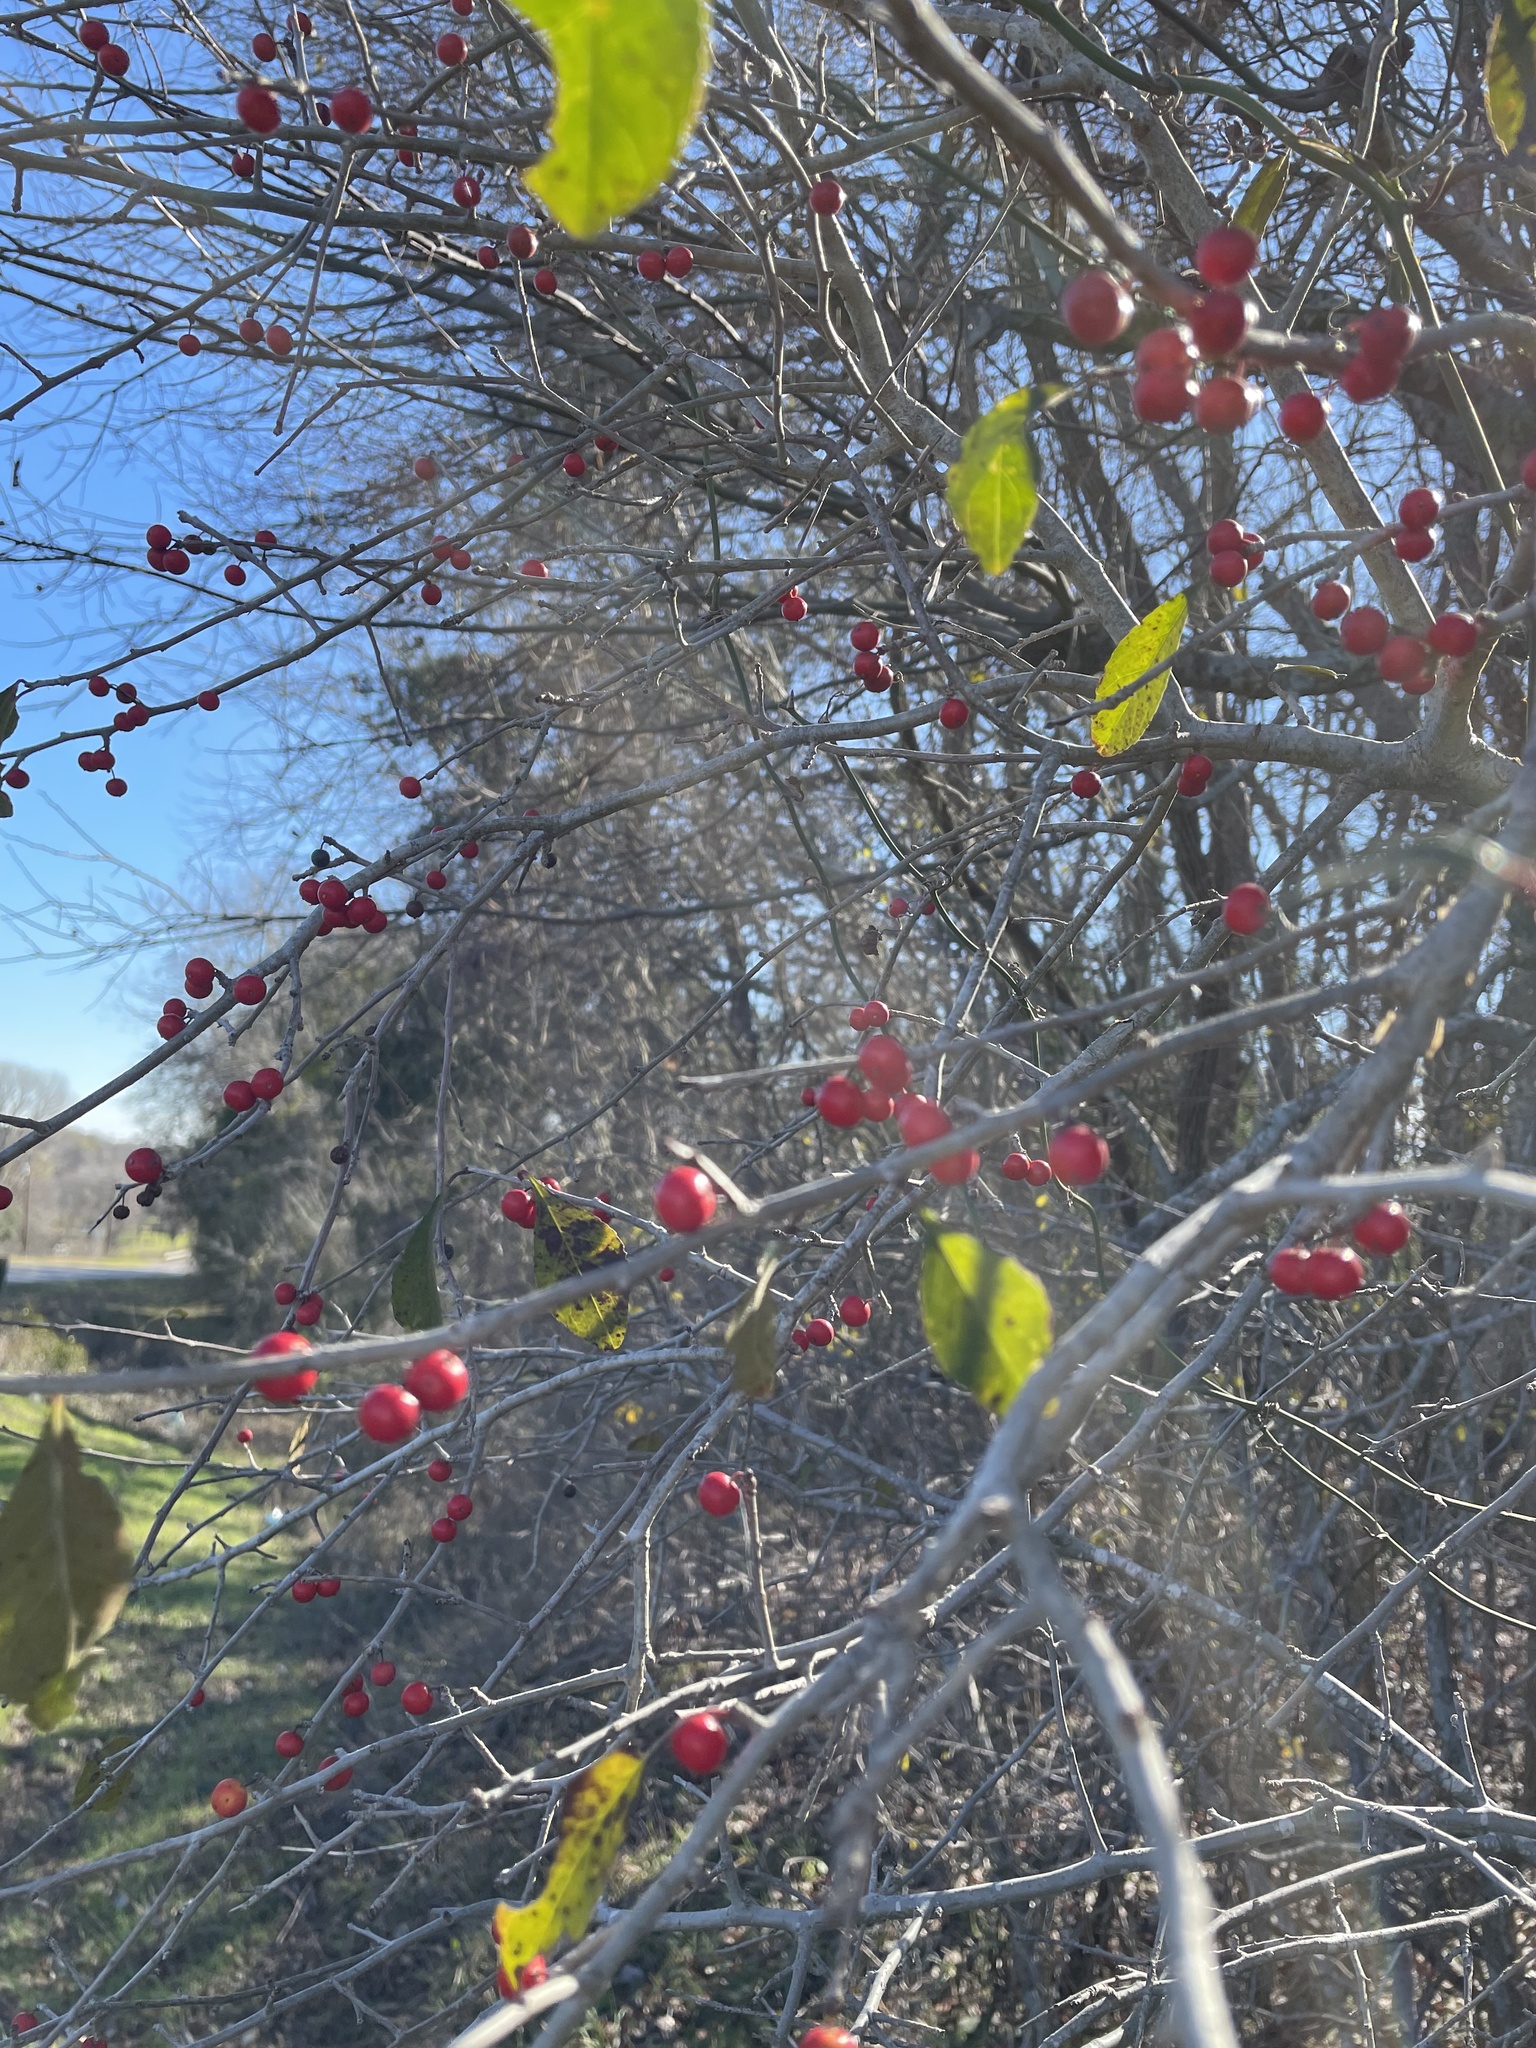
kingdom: Plantae
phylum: Tracheophyta
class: Magnoliopsida
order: Aquifoliales
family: Aquifoliaceae
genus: Ilex
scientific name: Ilex decidua
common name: Possum-haw
